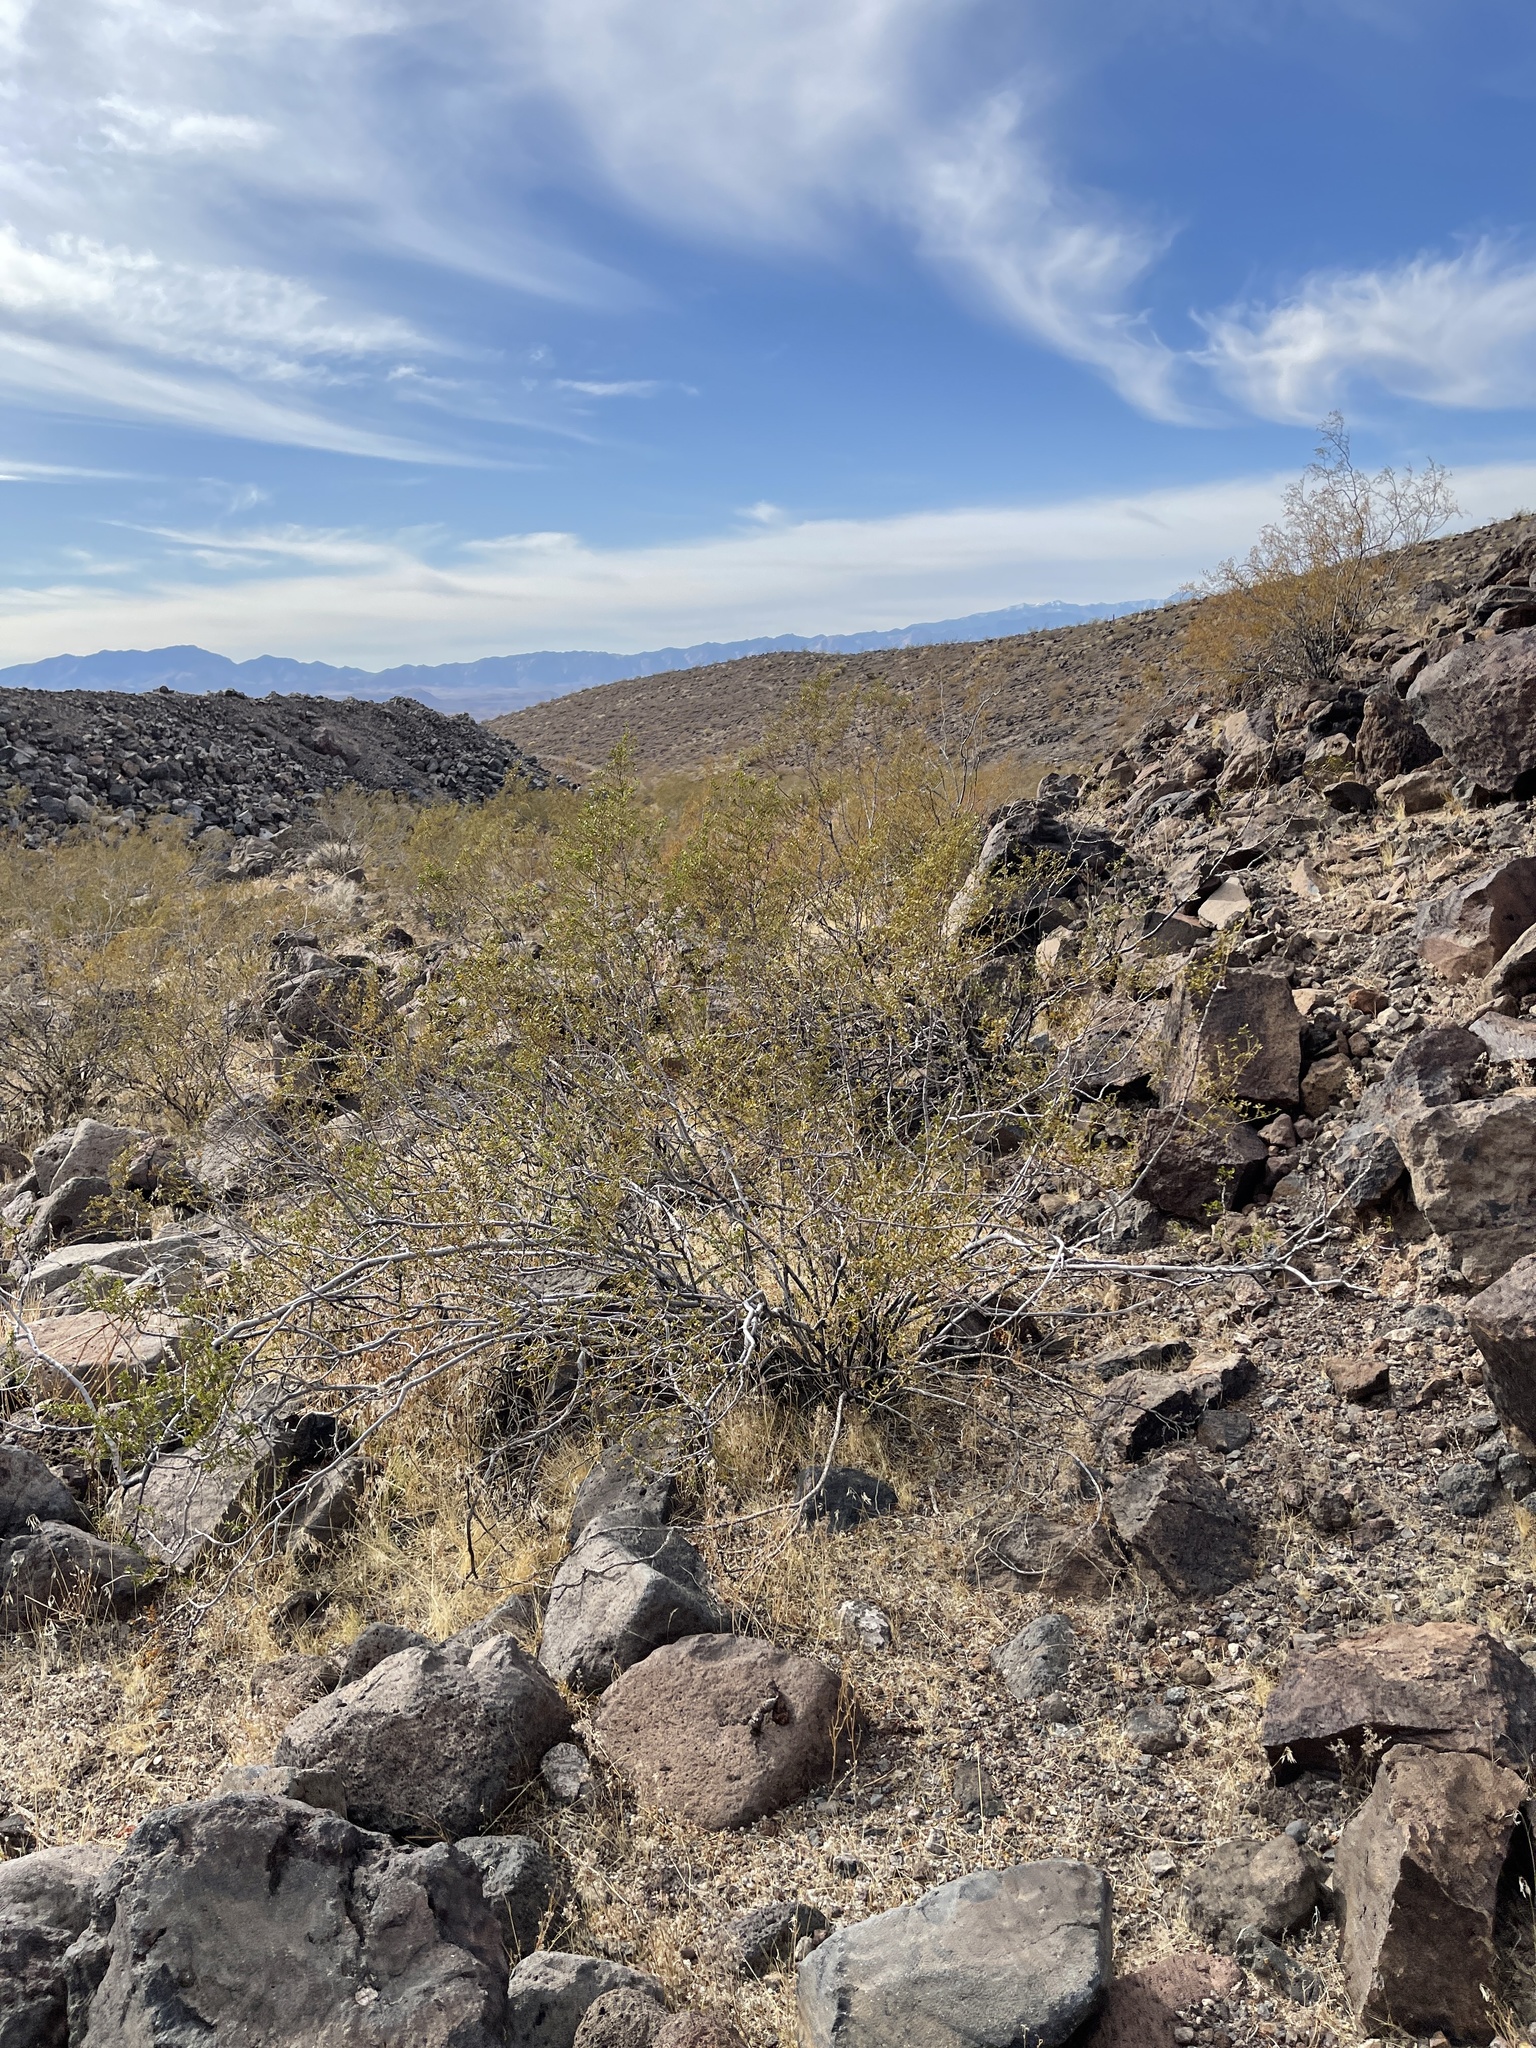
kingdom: Plantae
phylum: Tracheophyta
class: Magnoliopsida
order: Zygophyllales
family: Zygophyllaceae
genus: Larrea
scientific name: Larrea tridentata
